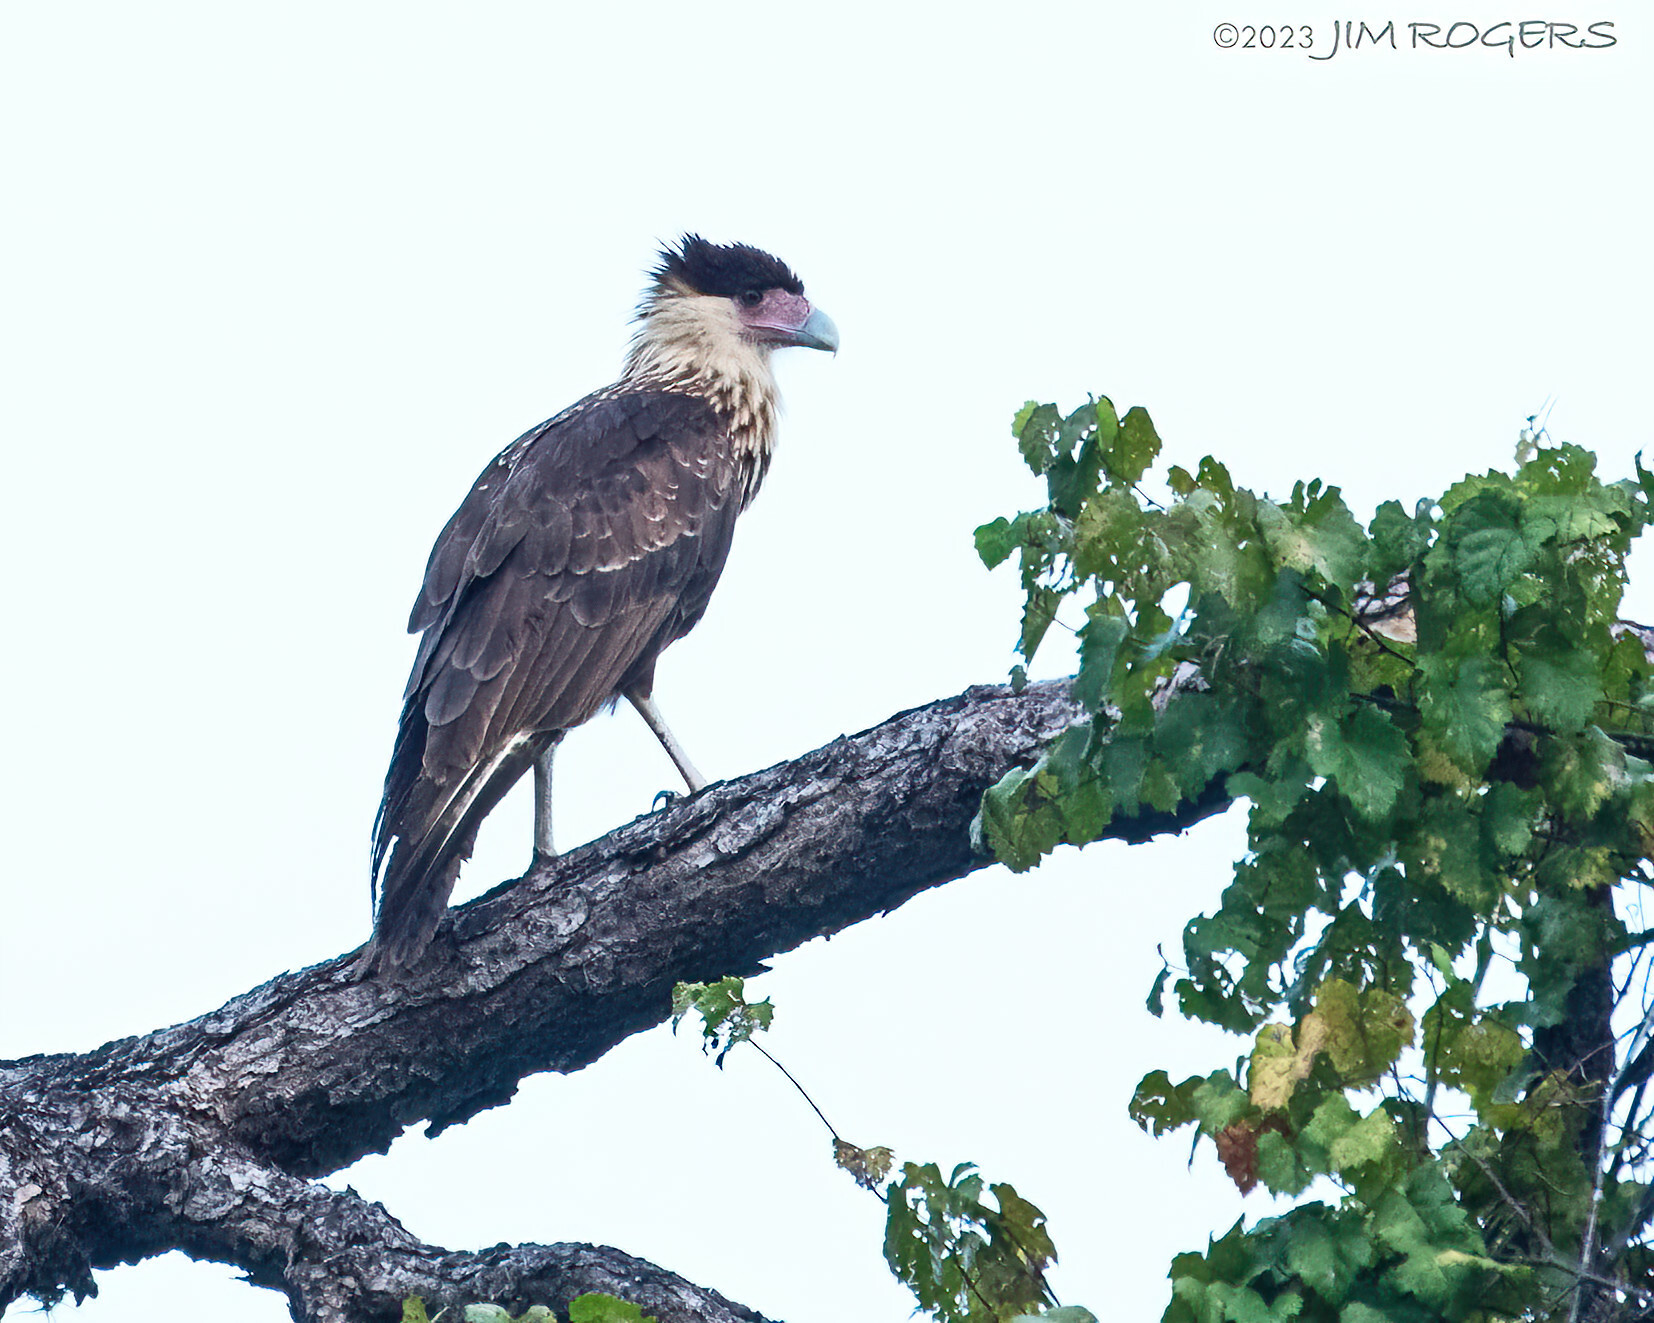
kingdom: Animalia
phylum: Chordata
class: Aves
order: Falconiformes
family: Falconidae
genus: Caracara
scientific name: Caracara plancus
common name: Southern caracara
